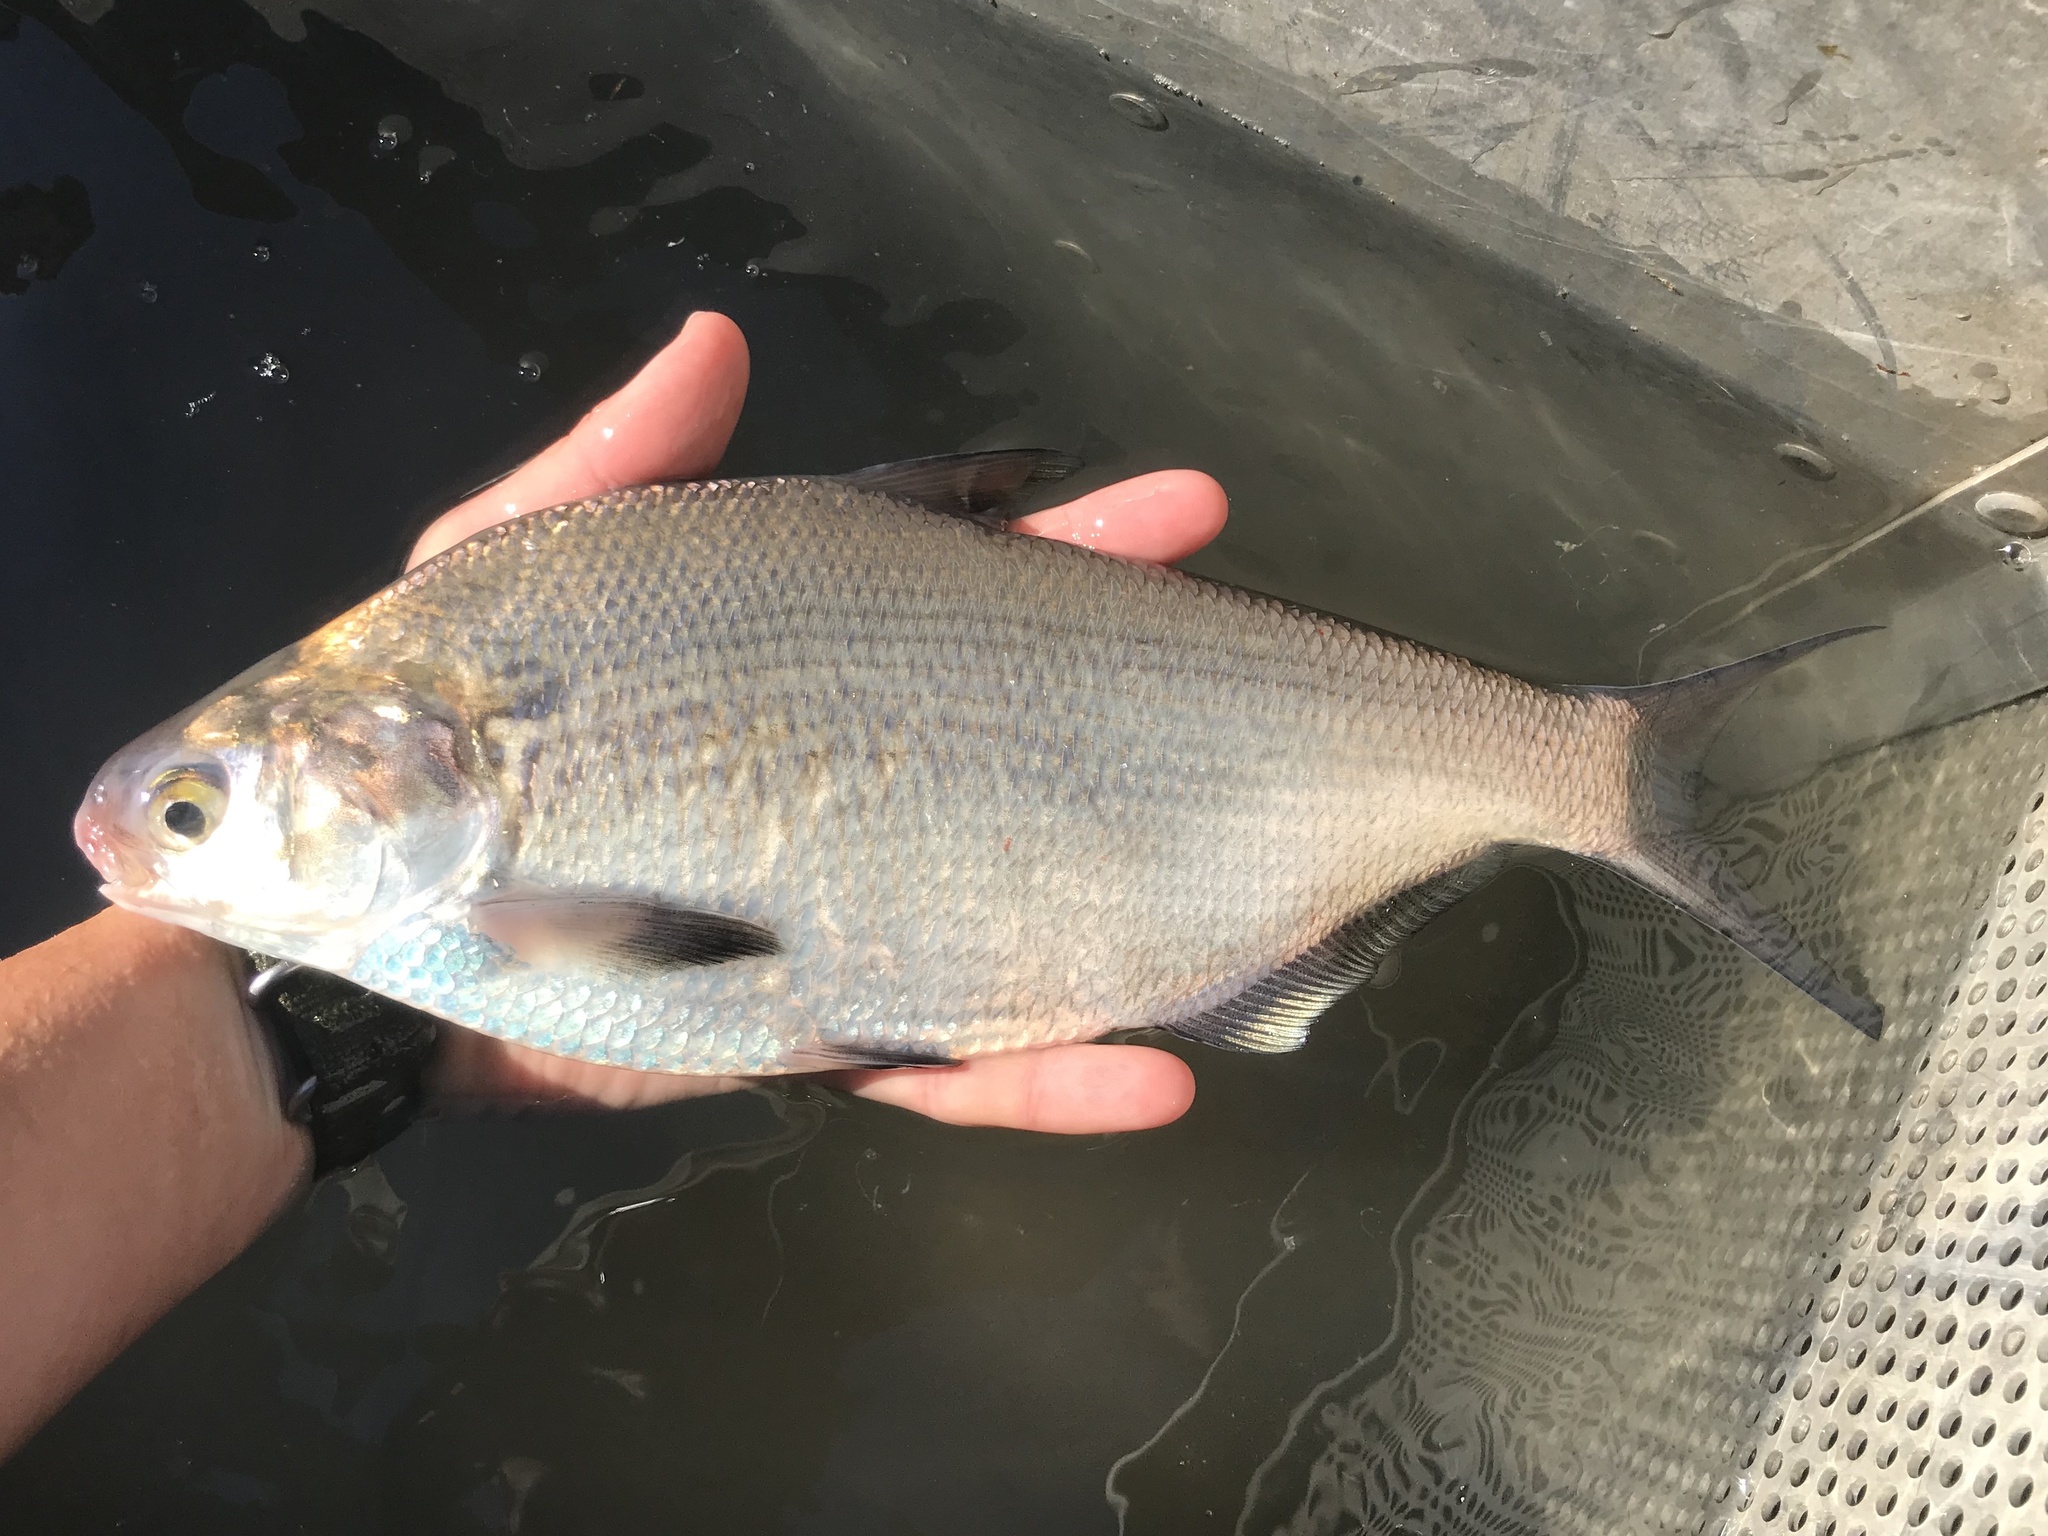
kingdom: Animalia
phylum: Chordata
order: Clupeiformes
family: Clupeidae
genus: Dorosoma
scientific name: Dorosoma cepedianum
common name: Gizzard shad
